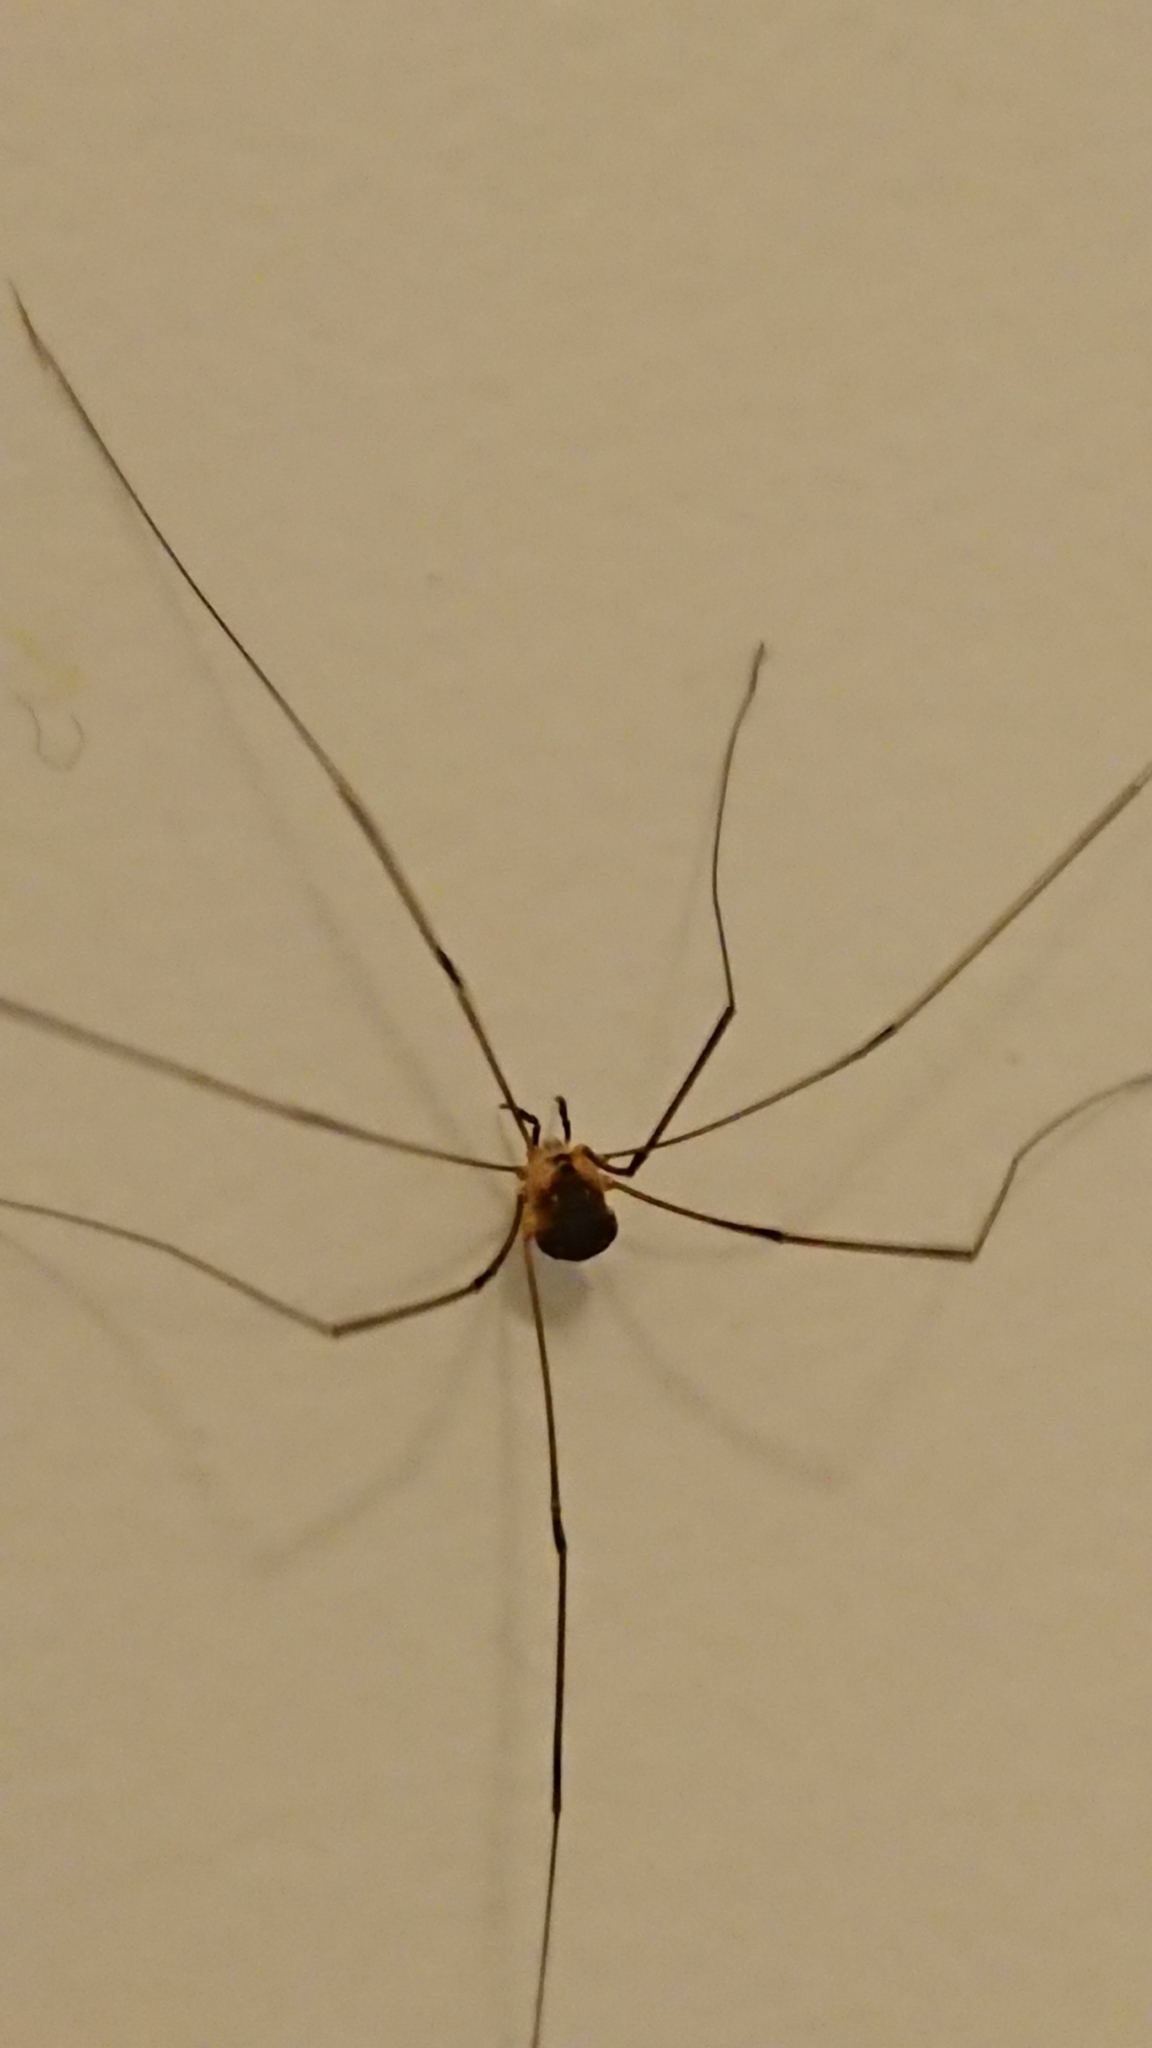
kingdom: Animalia
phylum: Arthropoda
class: Arachnida
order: Opiliones
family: Sclerosomatidae
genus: Leiobunum
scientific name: Leiobunum gracile
